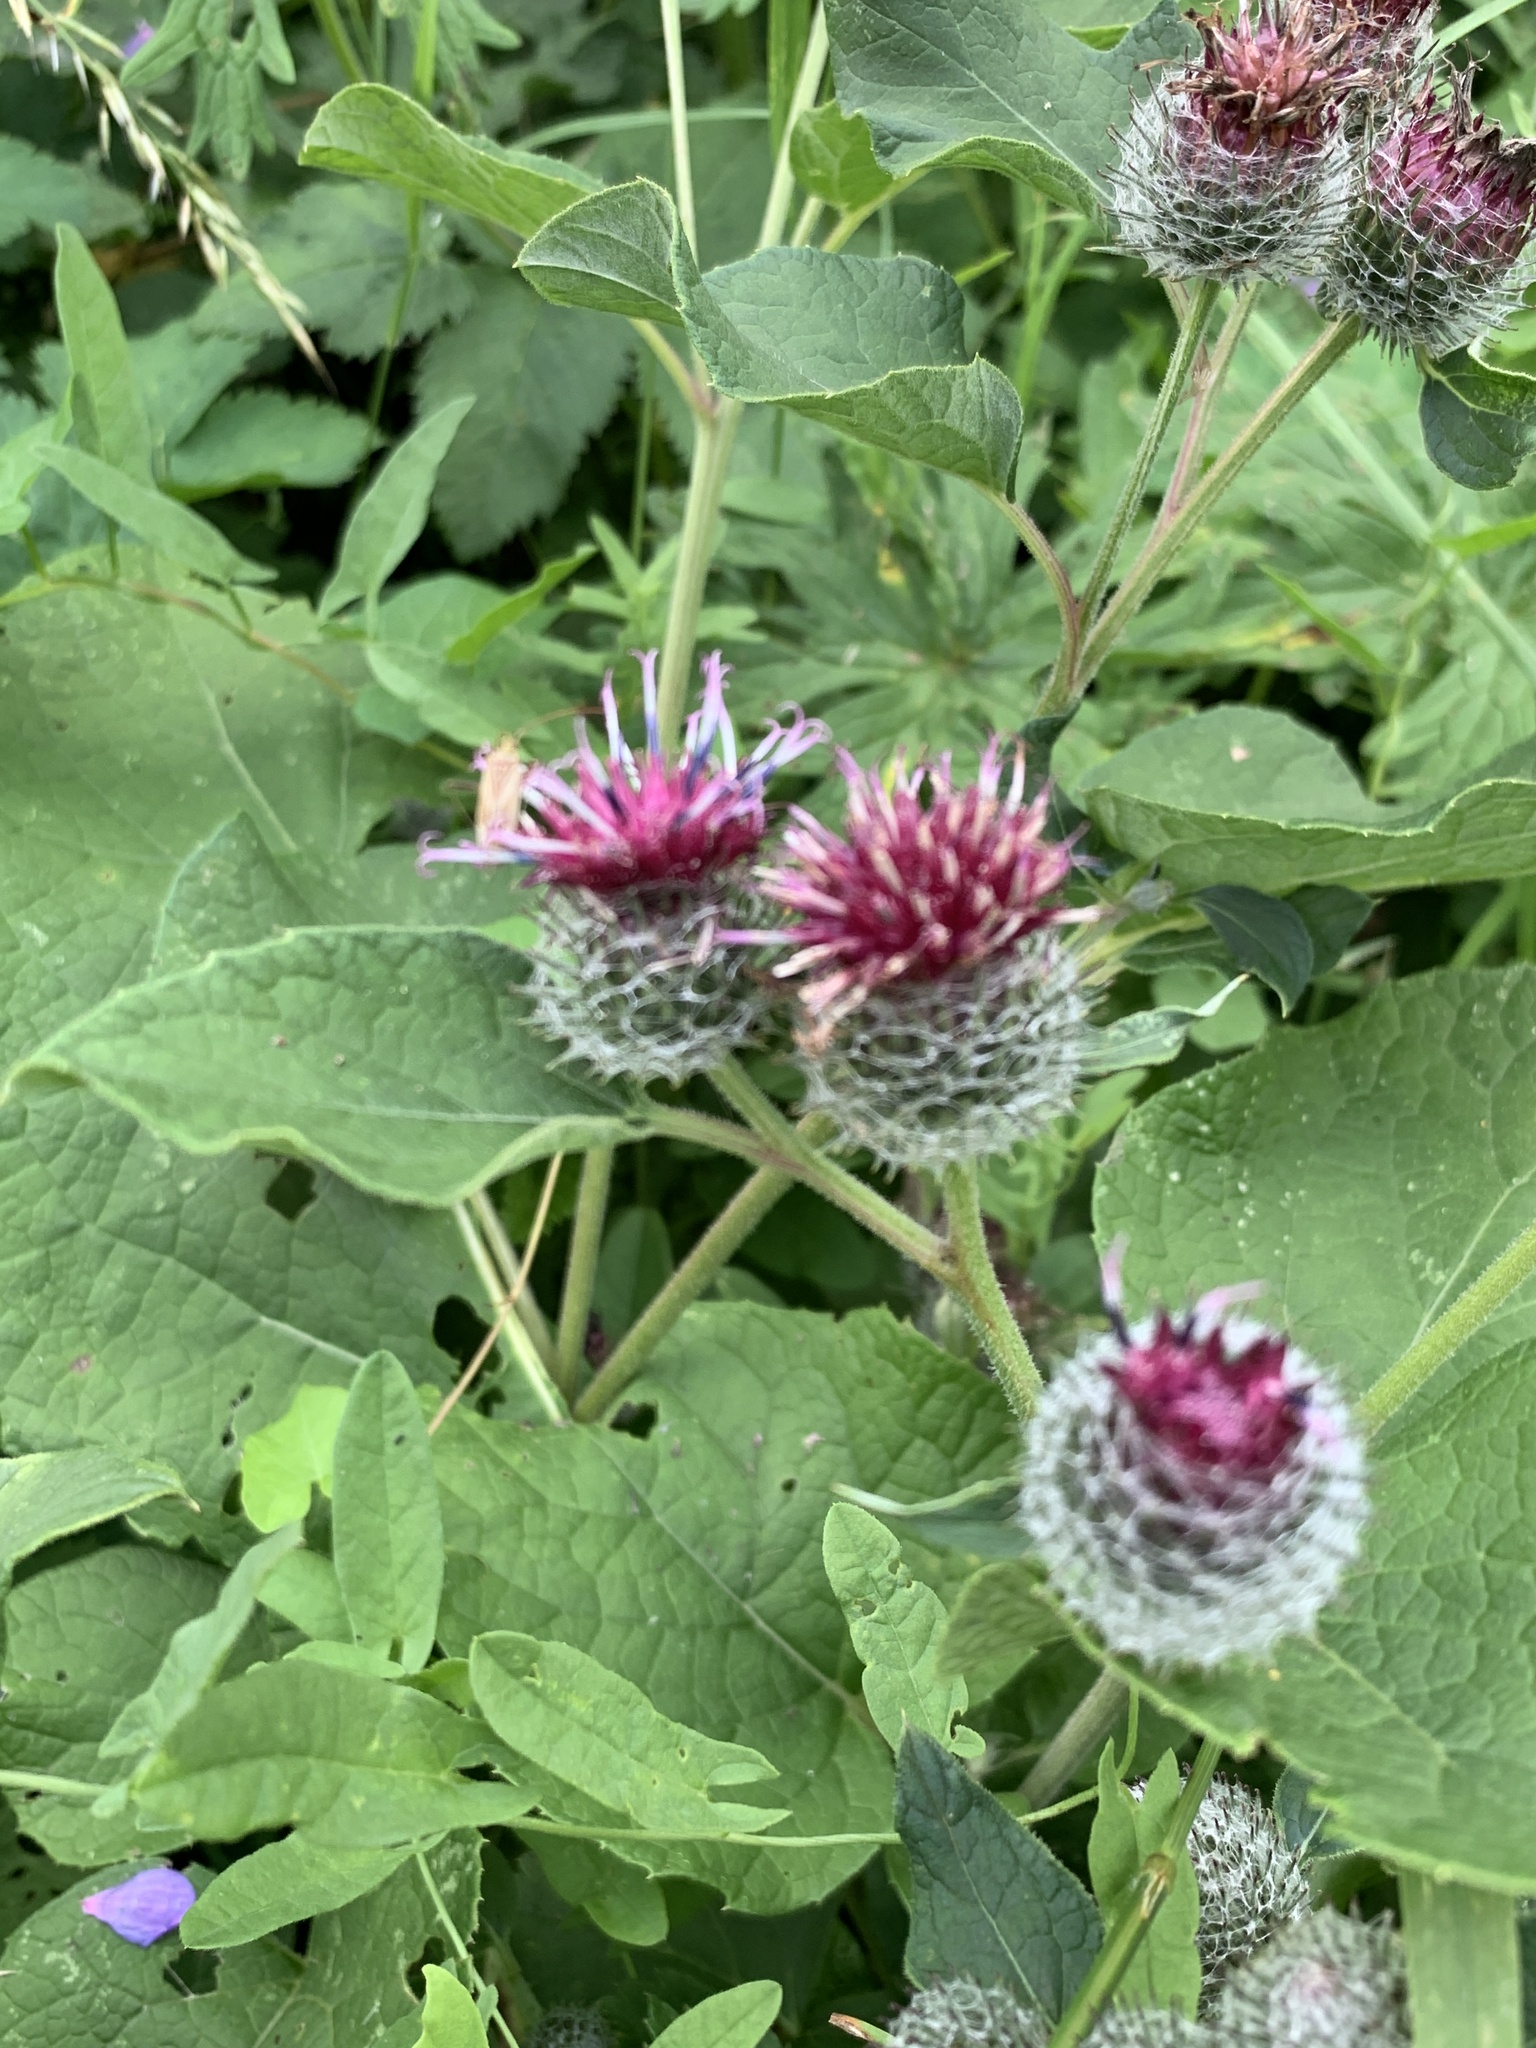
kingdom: Plantae
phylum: Tracheophyta
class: Magnoliopsida
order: Asterales
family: Asteraceae
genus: Arctium
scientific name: Arctium tomentosum
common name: Woolly burdock
